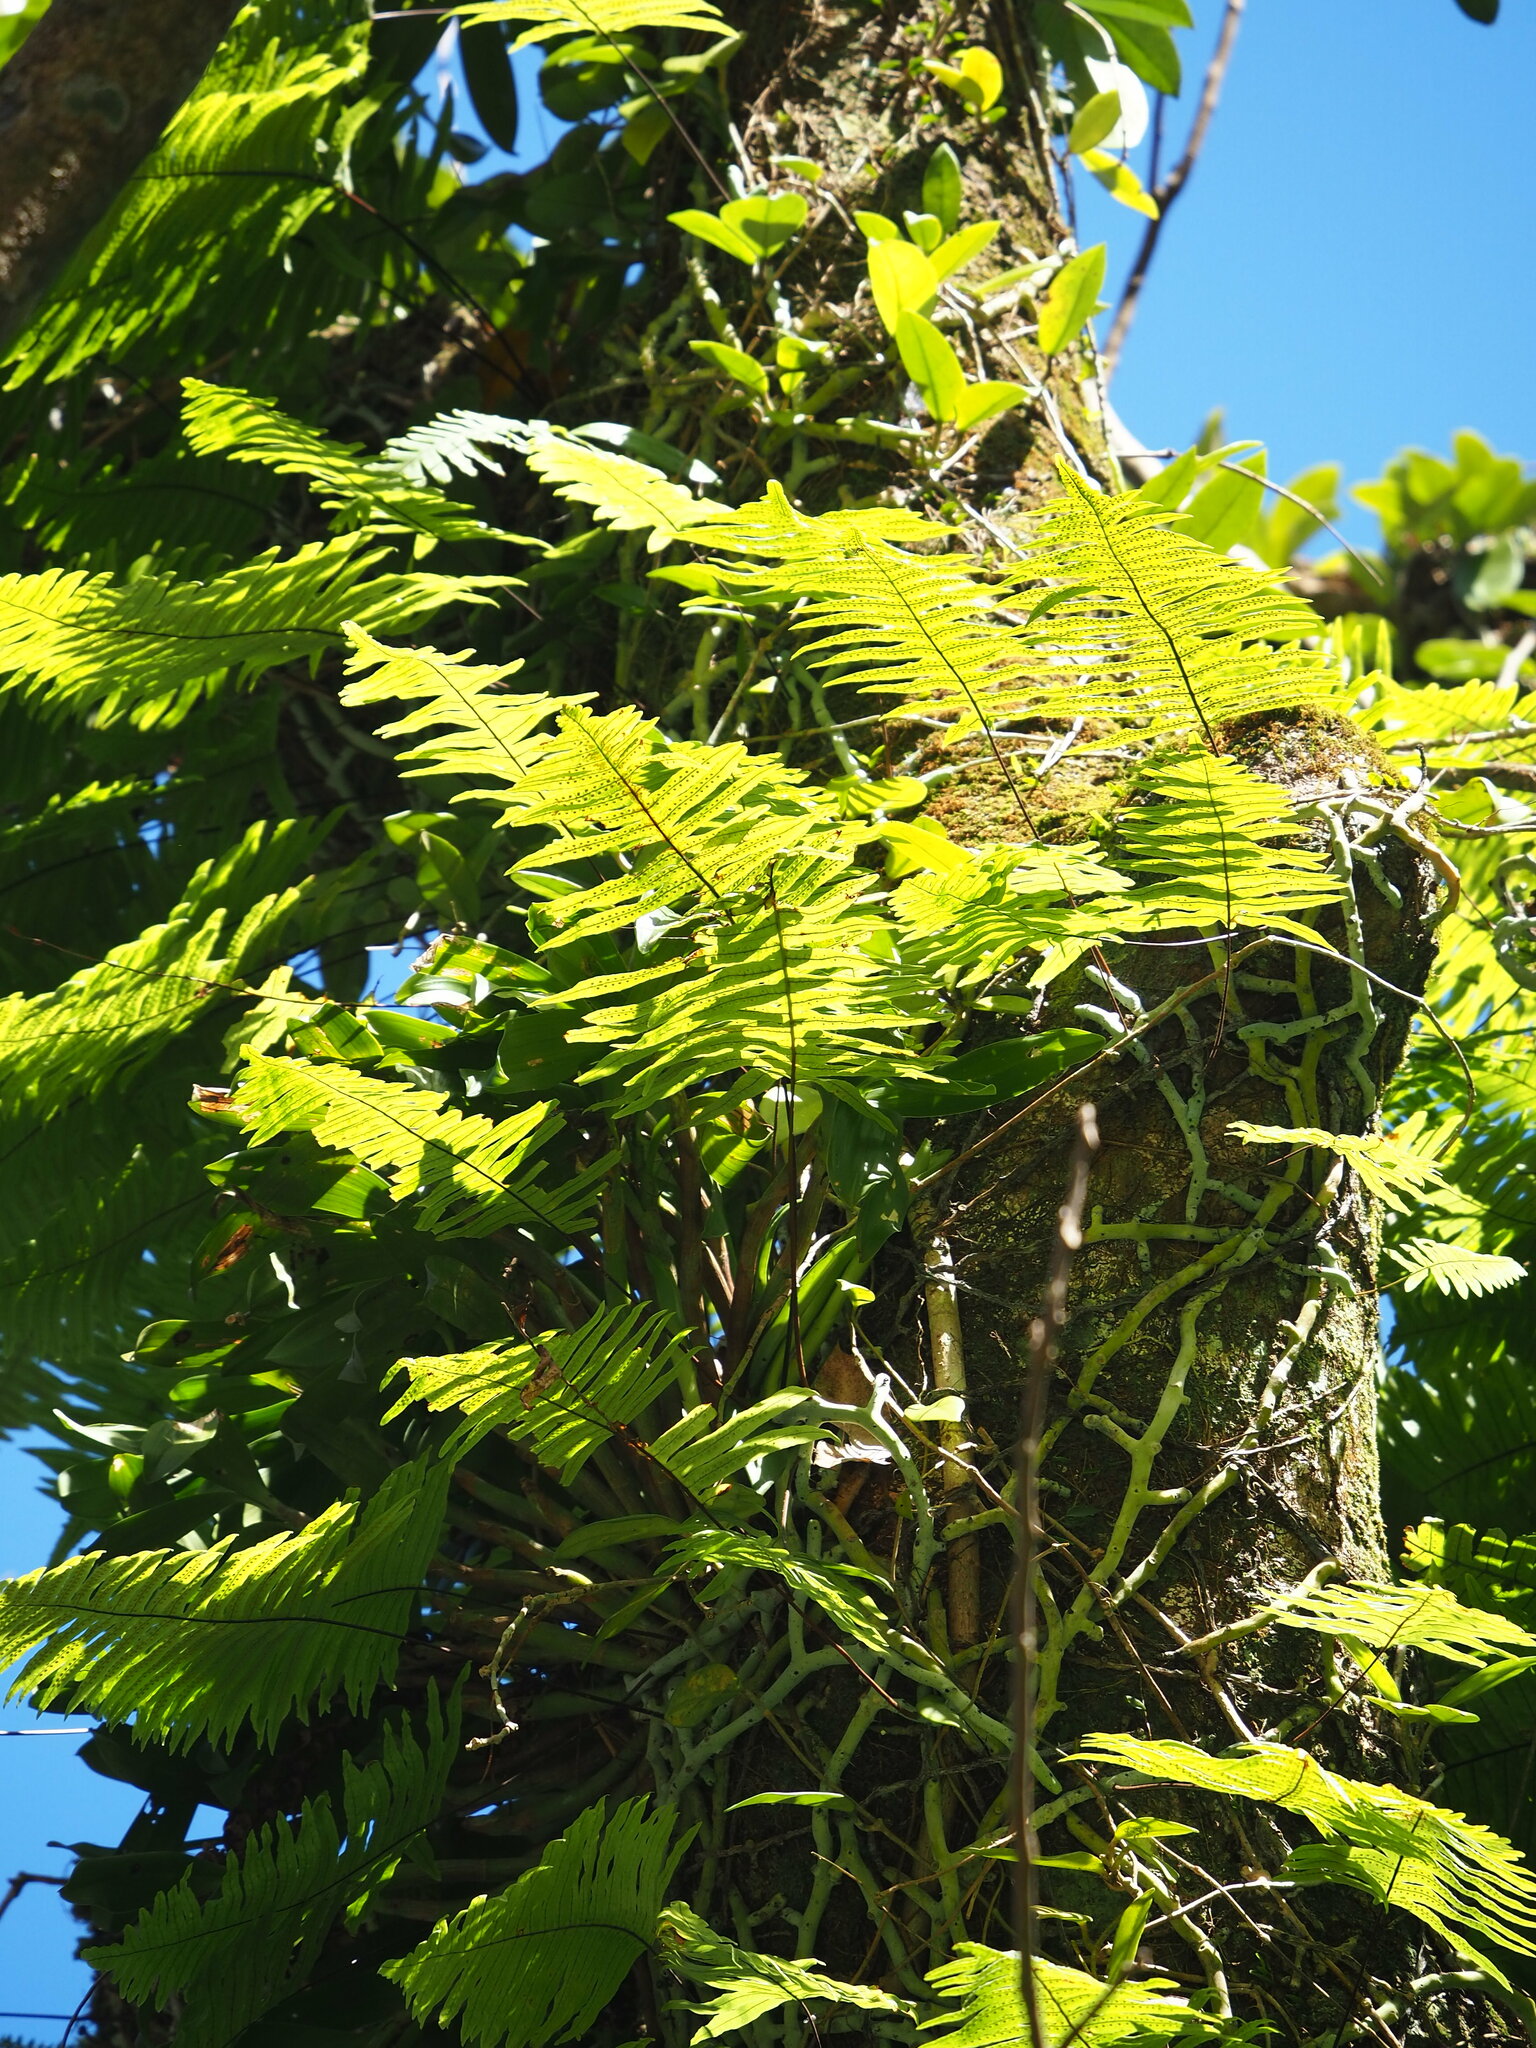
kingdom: Plantae
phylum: Tracheophyta
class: Polypodiopsida
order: Polypodiales
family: Polypodiaceae
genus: Goniophlebium
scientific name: Goniophlebium formosanum
